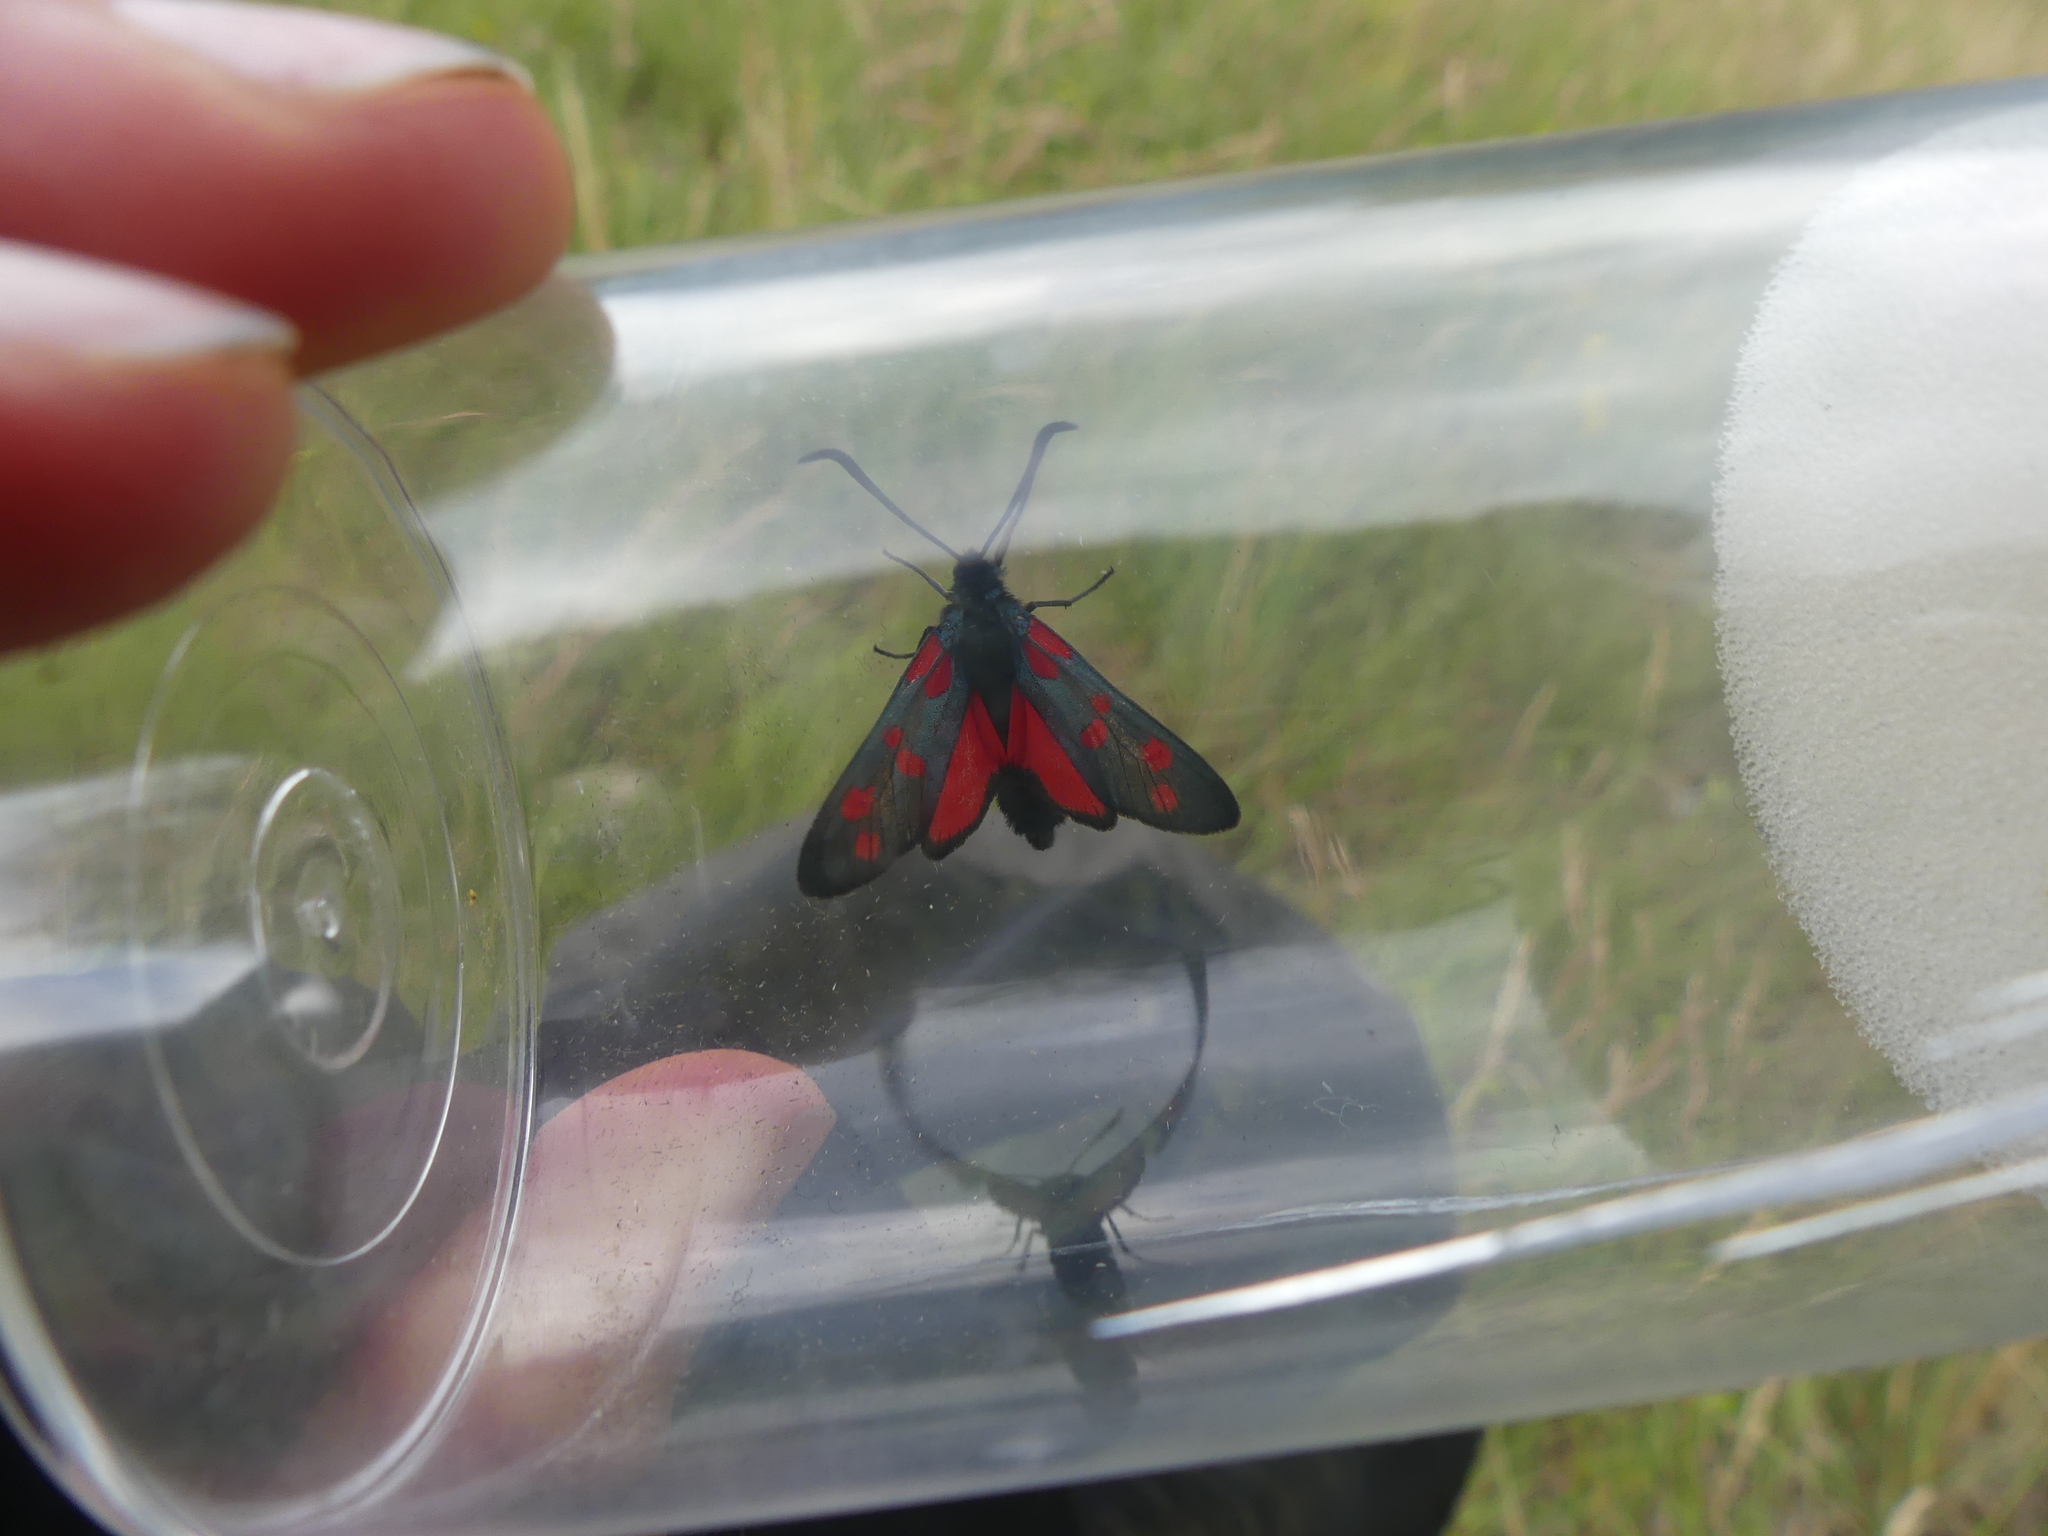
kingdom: Animalia
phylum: Arthropoda
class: Insecta
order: Lepidoptera
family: Zygaenidae
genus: Zygaena
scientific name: Zygaena filipendulae
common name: Six-spot burnet
